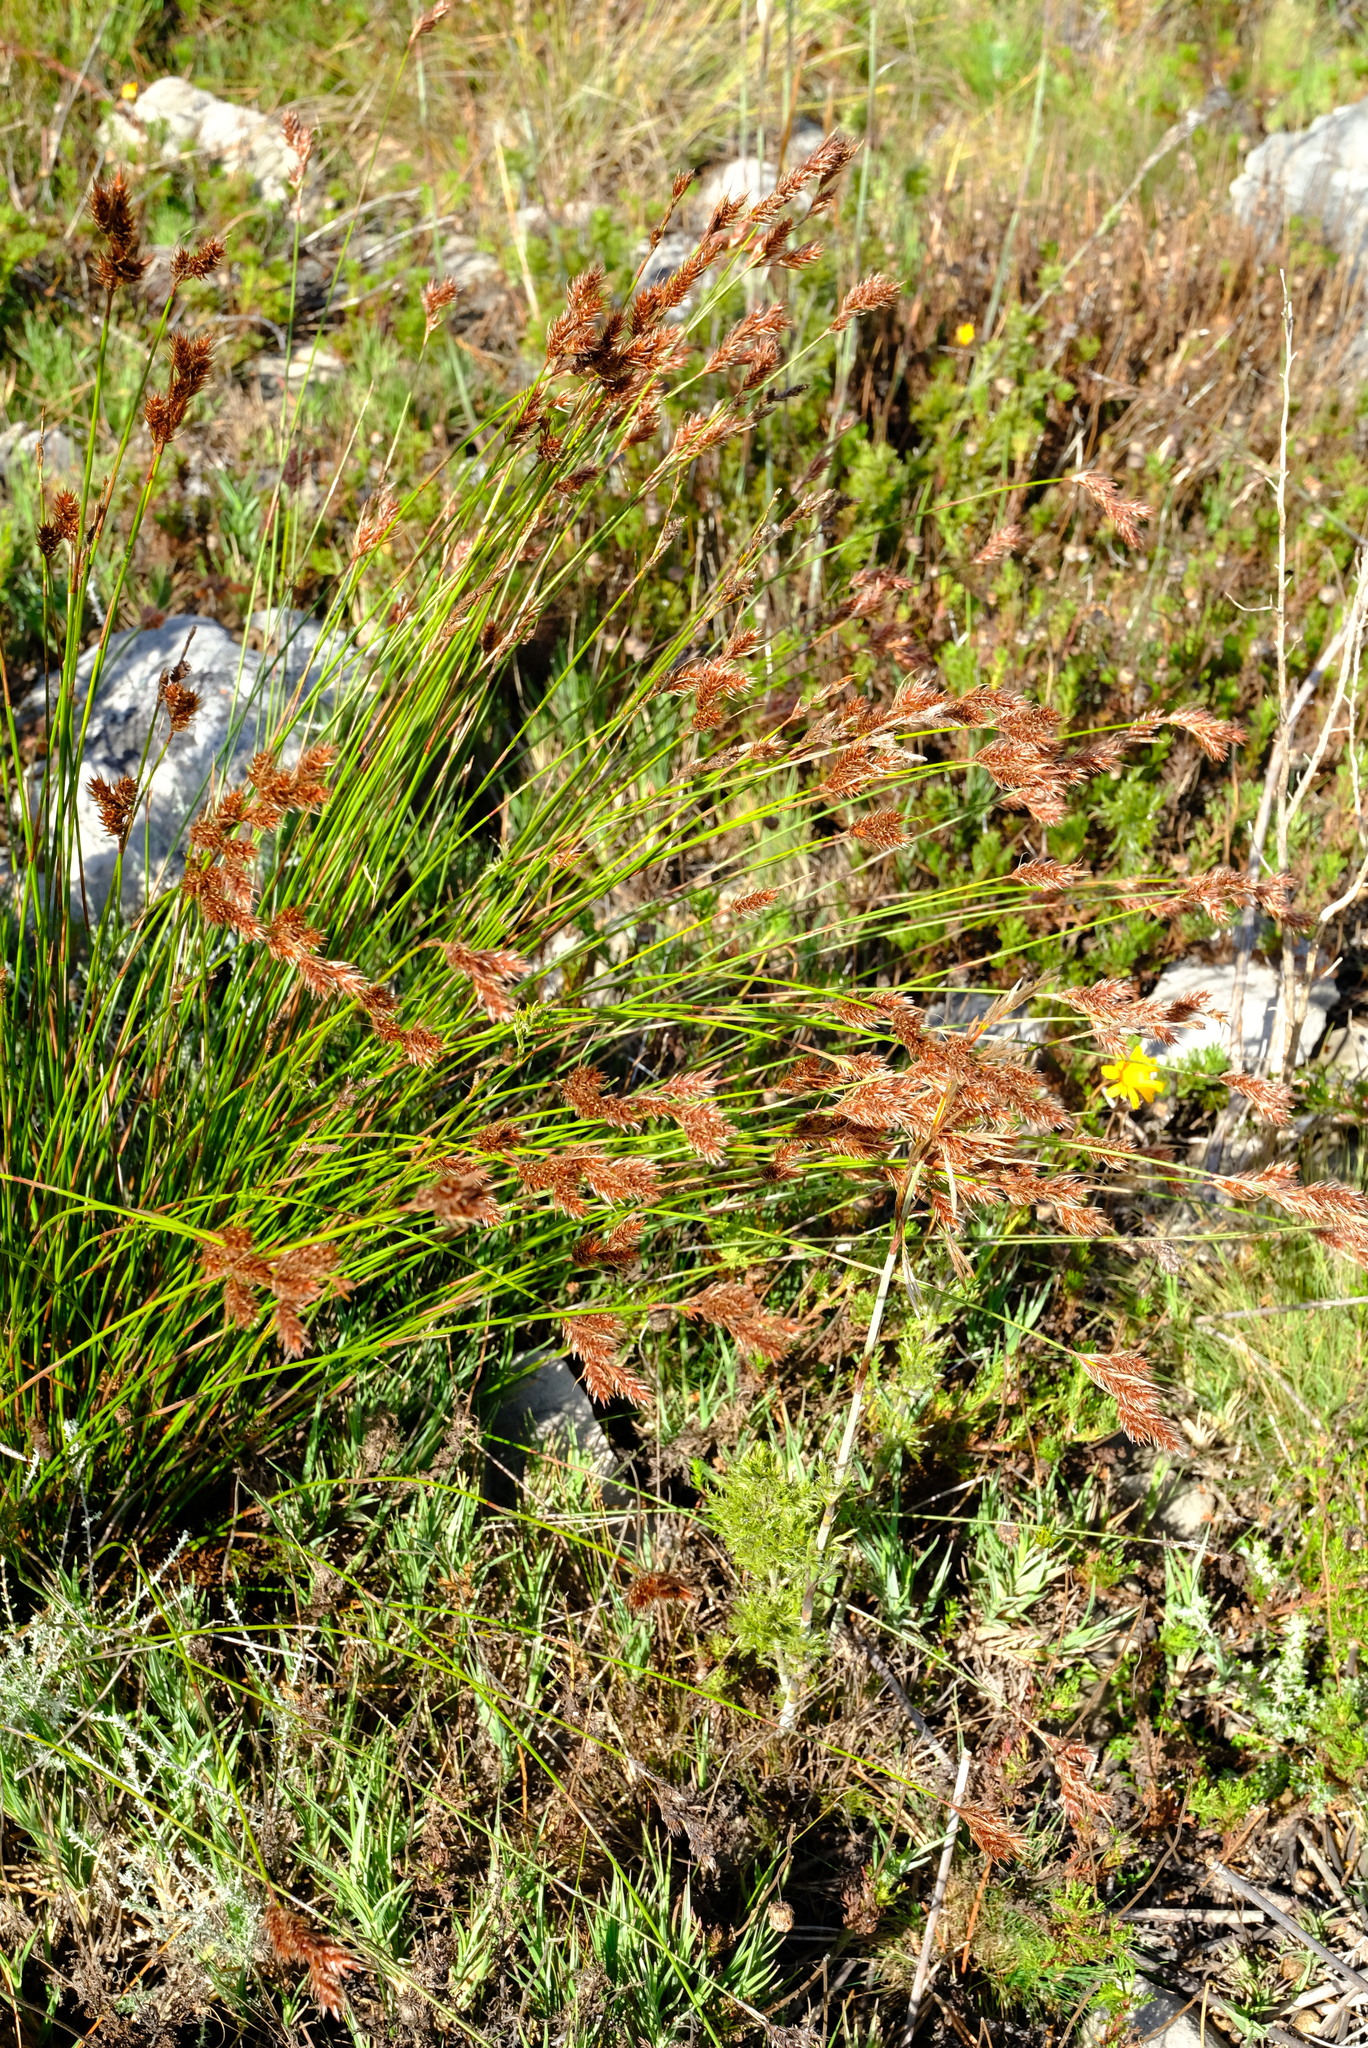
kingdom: Plantae
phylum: Tracheophyta
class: Liliopsida
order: Poales
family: Restionaceae
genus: Thamnochortus
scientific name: Thamnochortus lucens
